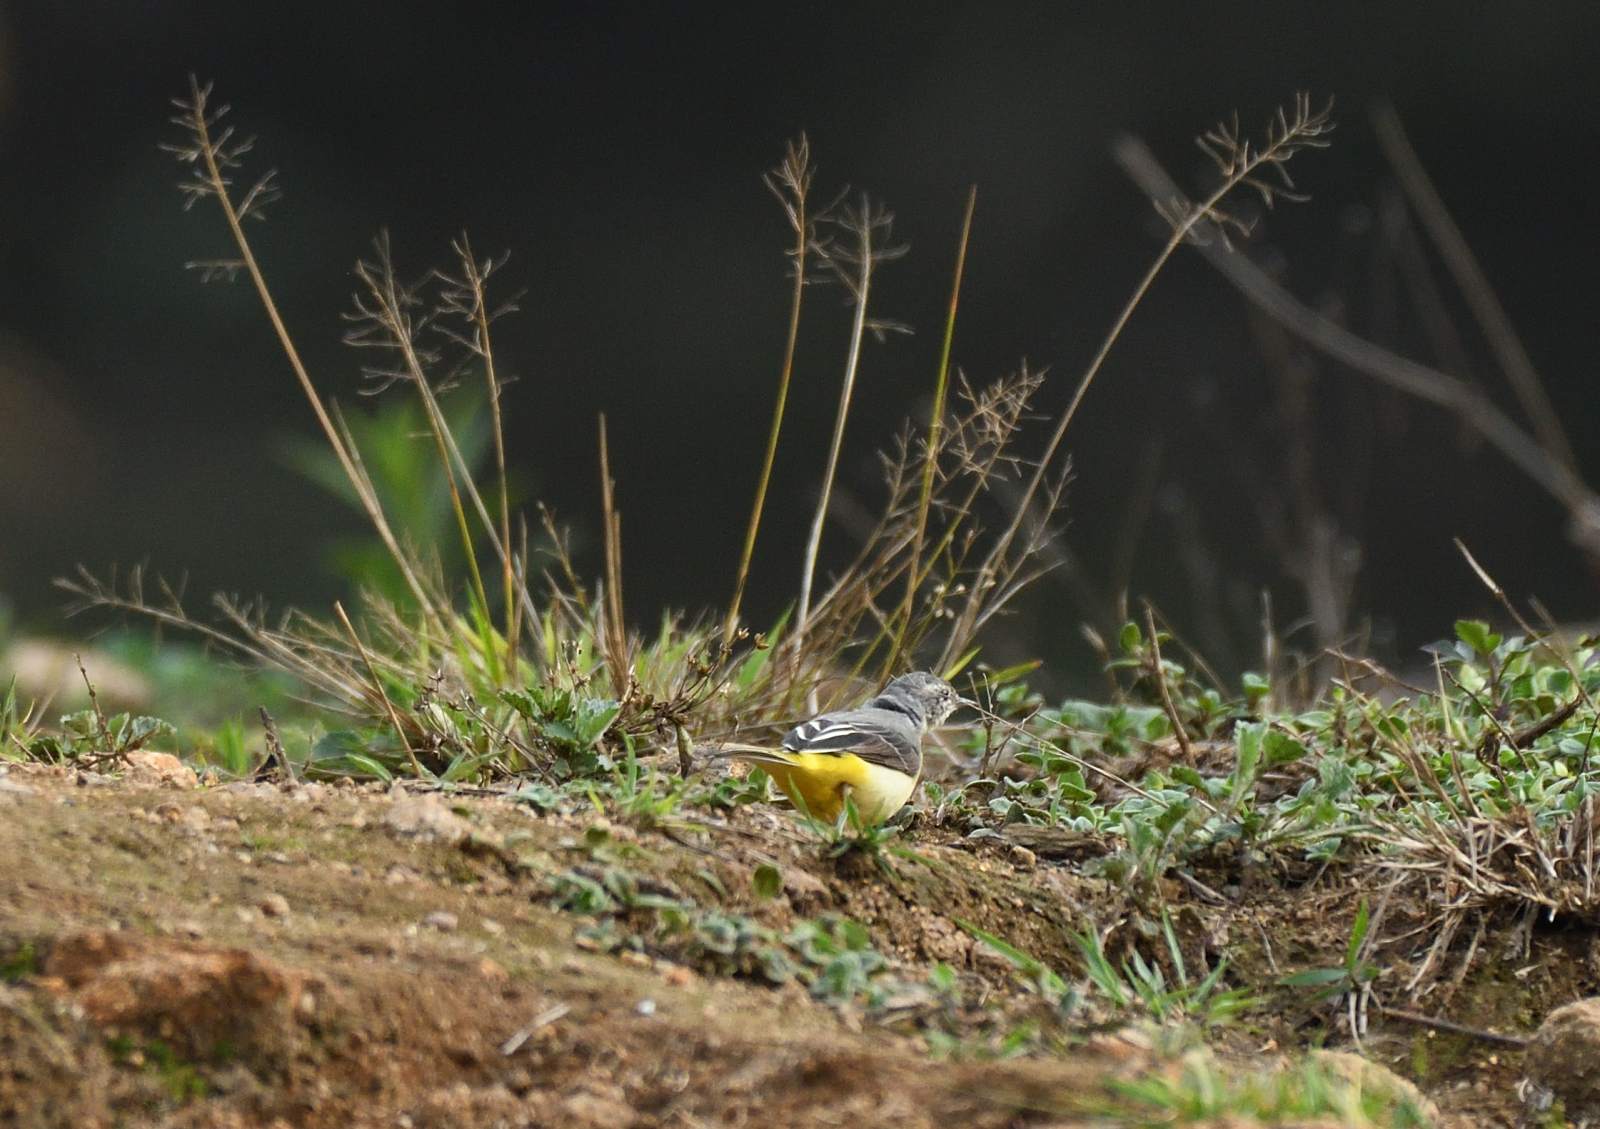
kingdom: Animalia
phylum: Chordata
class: Aves
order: Passeriformes
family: Motacillidae
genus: Motacilla
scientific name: Motacilla cinerea
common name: Grey wagtail
